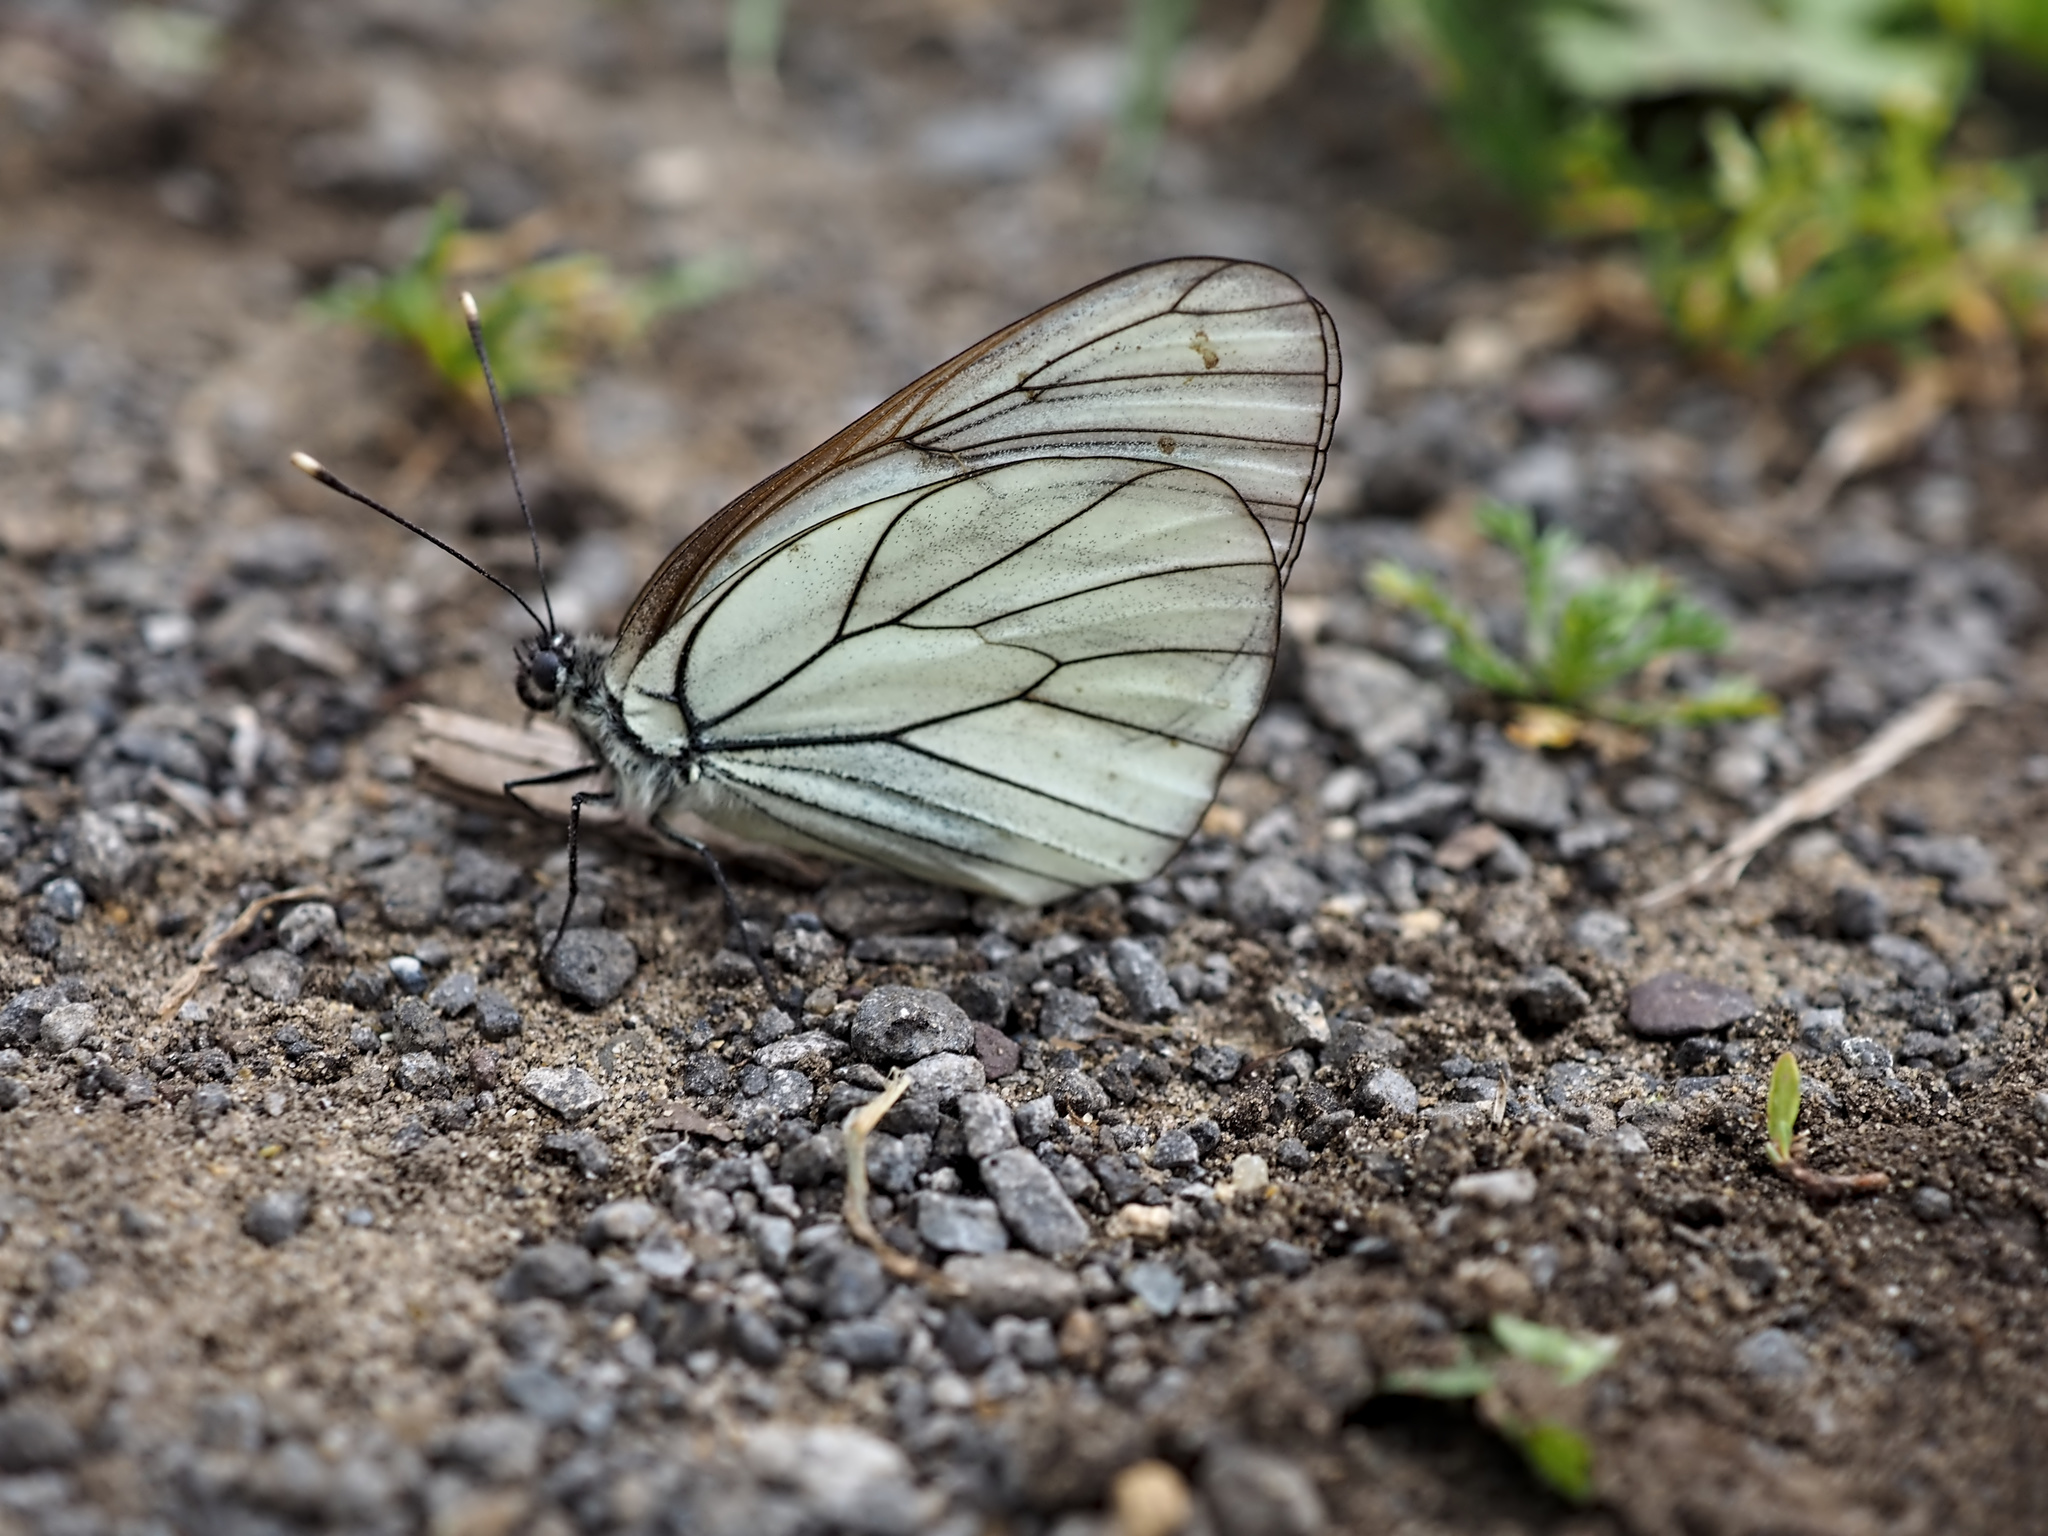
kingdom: Animalia
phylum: Arthropoda
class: Insecta
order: Lepidoptera
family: Pieridae
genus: Aporia
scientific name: Aporia crataegi
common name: Black-veined white
